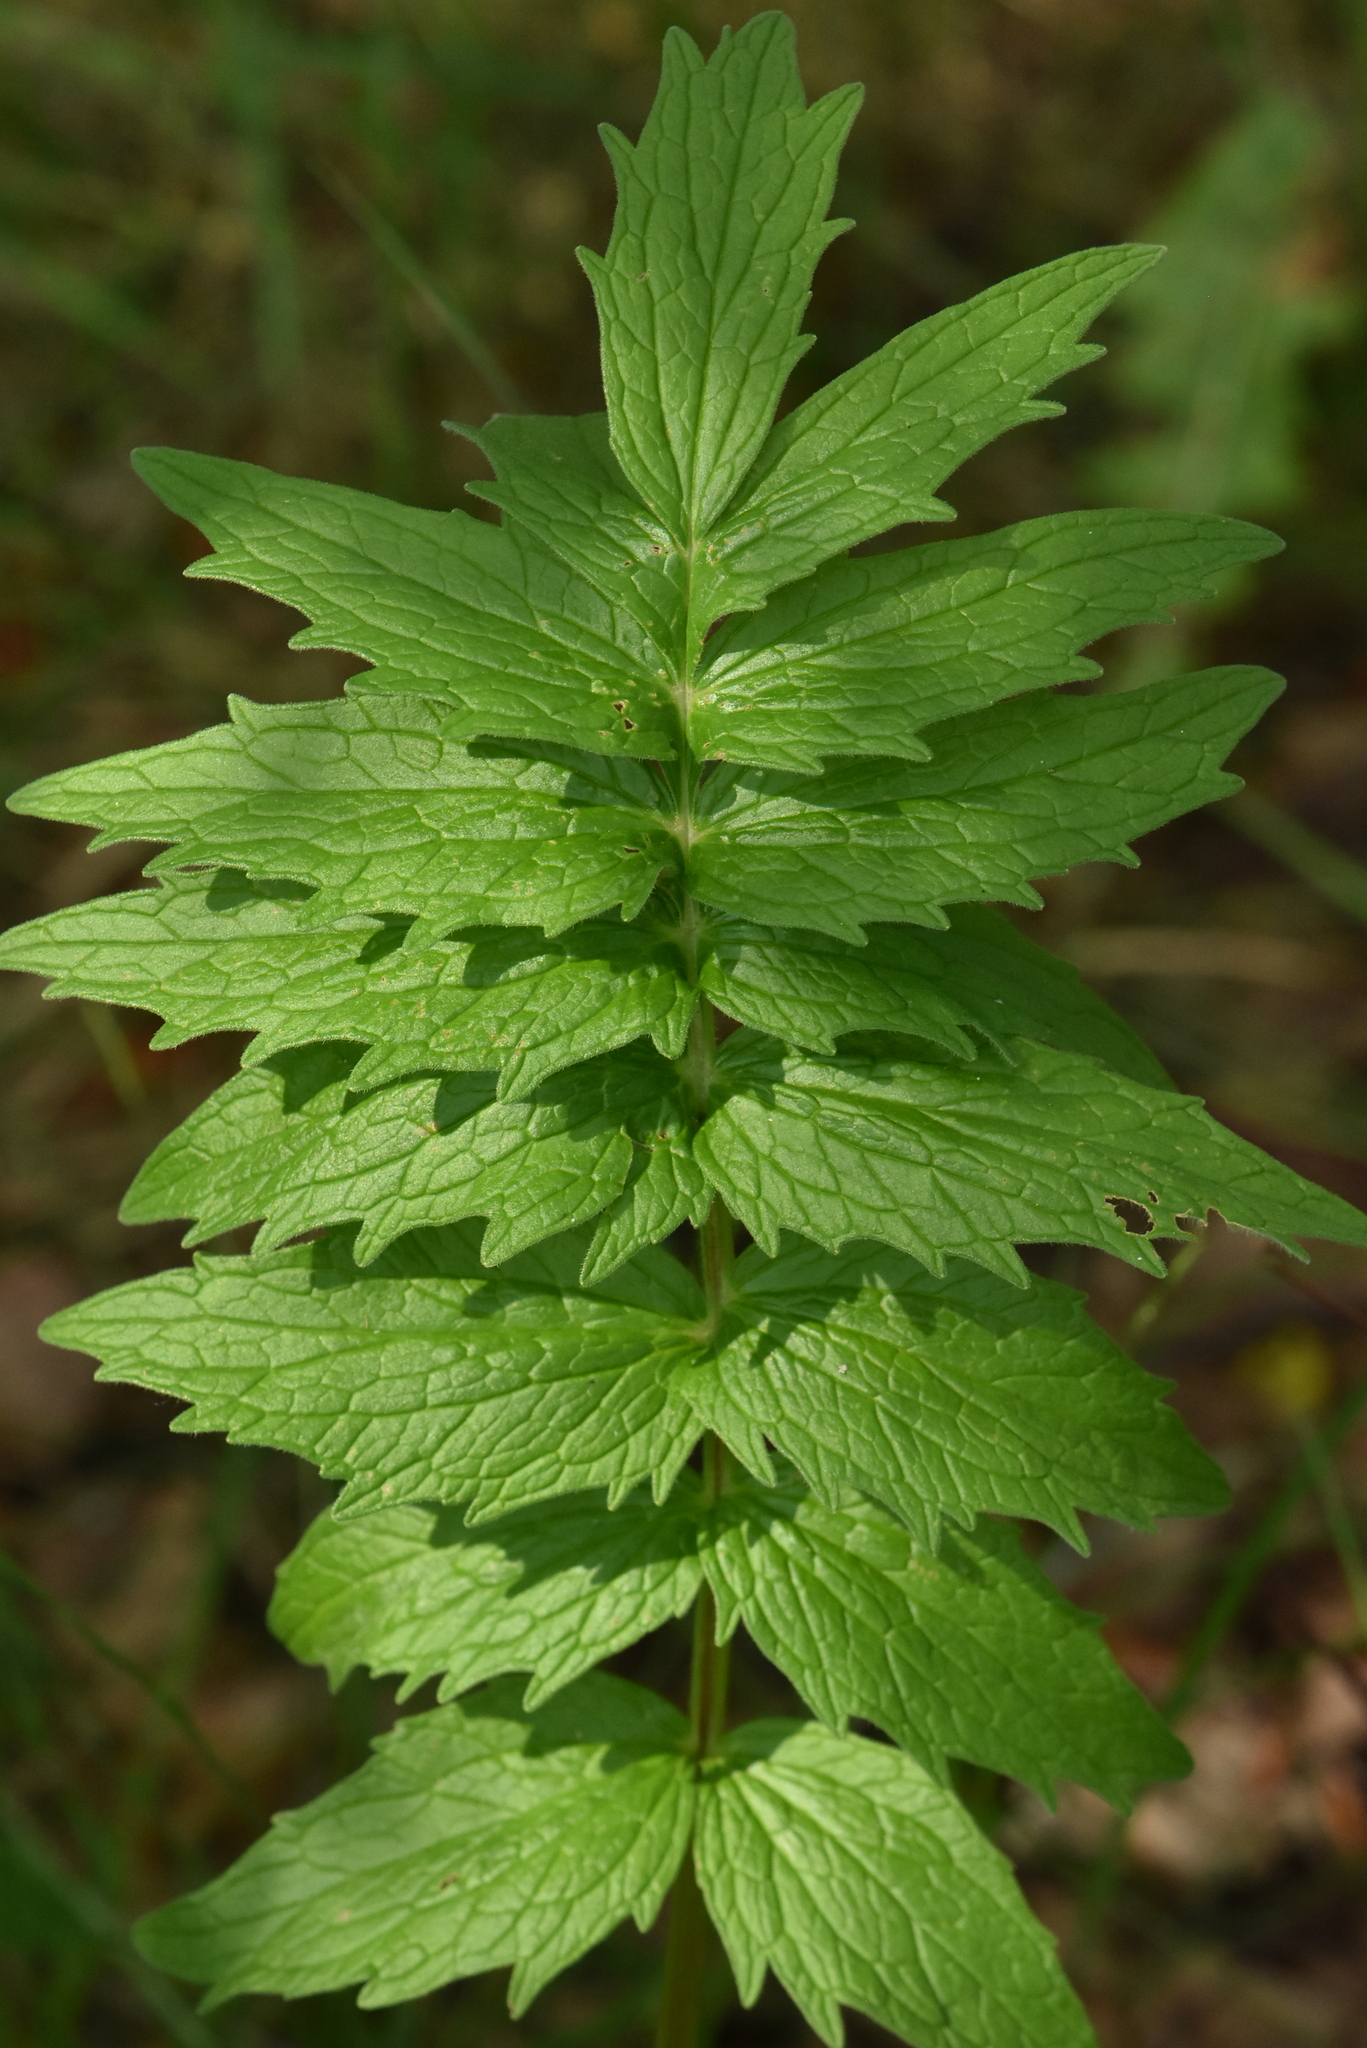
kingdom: Plantae
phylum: Tracheophyta
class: Magnoliopsida
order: Dipsacales
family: Caprifoliaceae
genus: Valeriana
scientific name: Valeriana officinalis
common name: Common valerian
